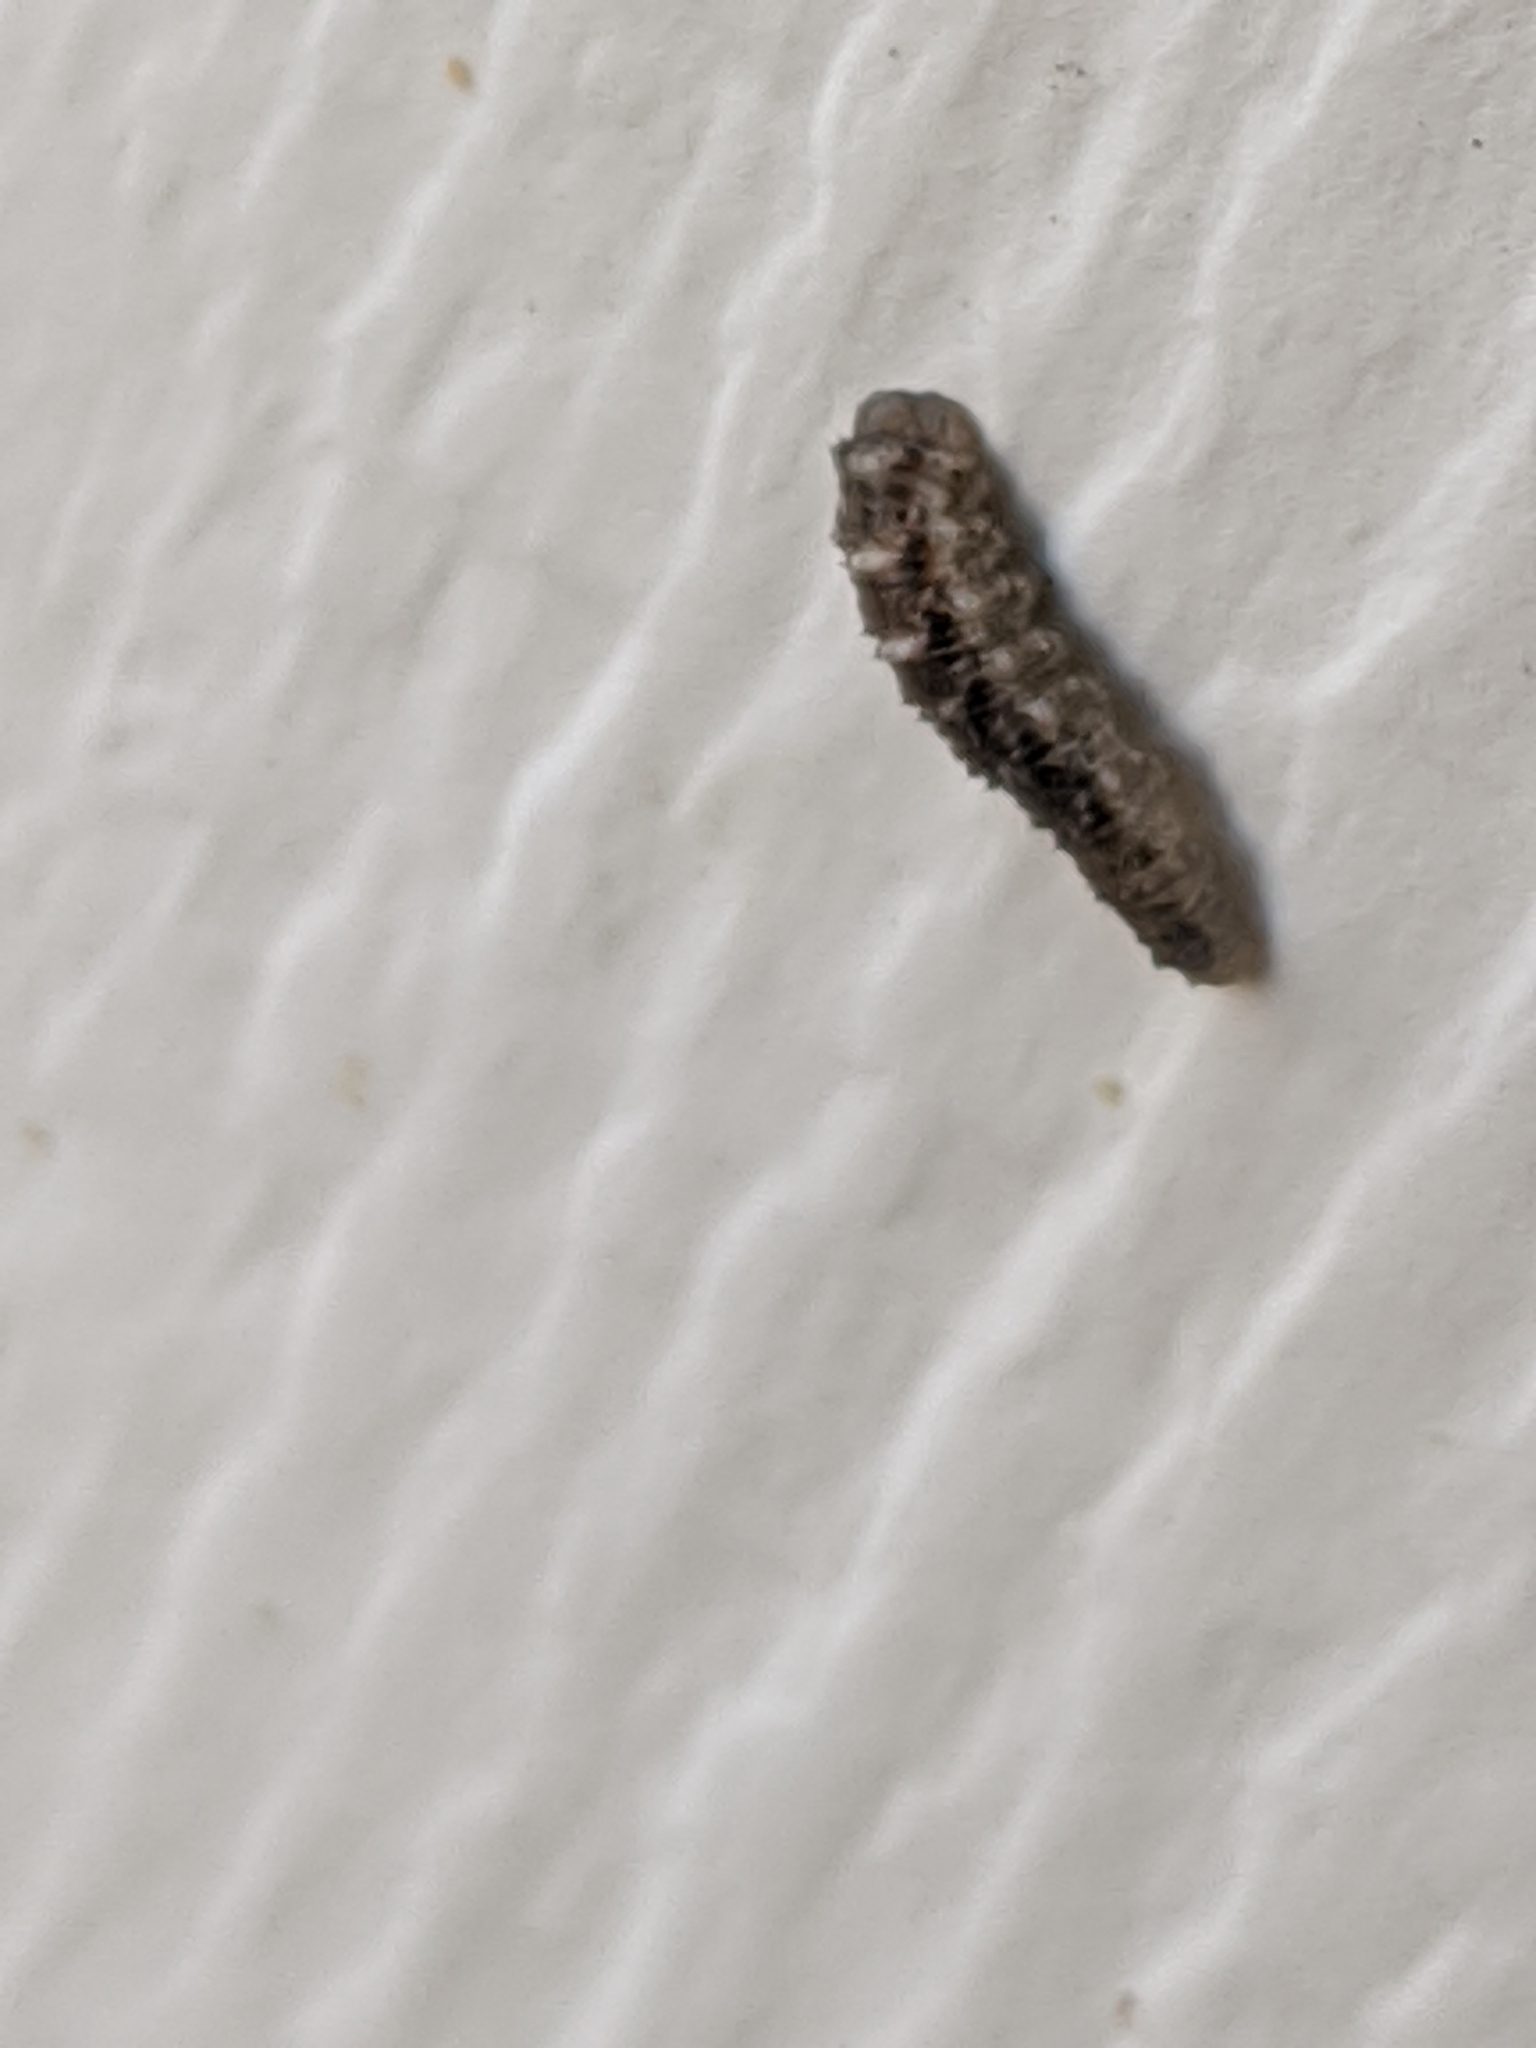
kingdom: Animalia
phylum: Arthropoda
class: Insecta
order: Diptera
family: Syrphidae
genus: Eupeodes
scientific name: Eupeodes americanus
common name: Long-tailed aphideater
